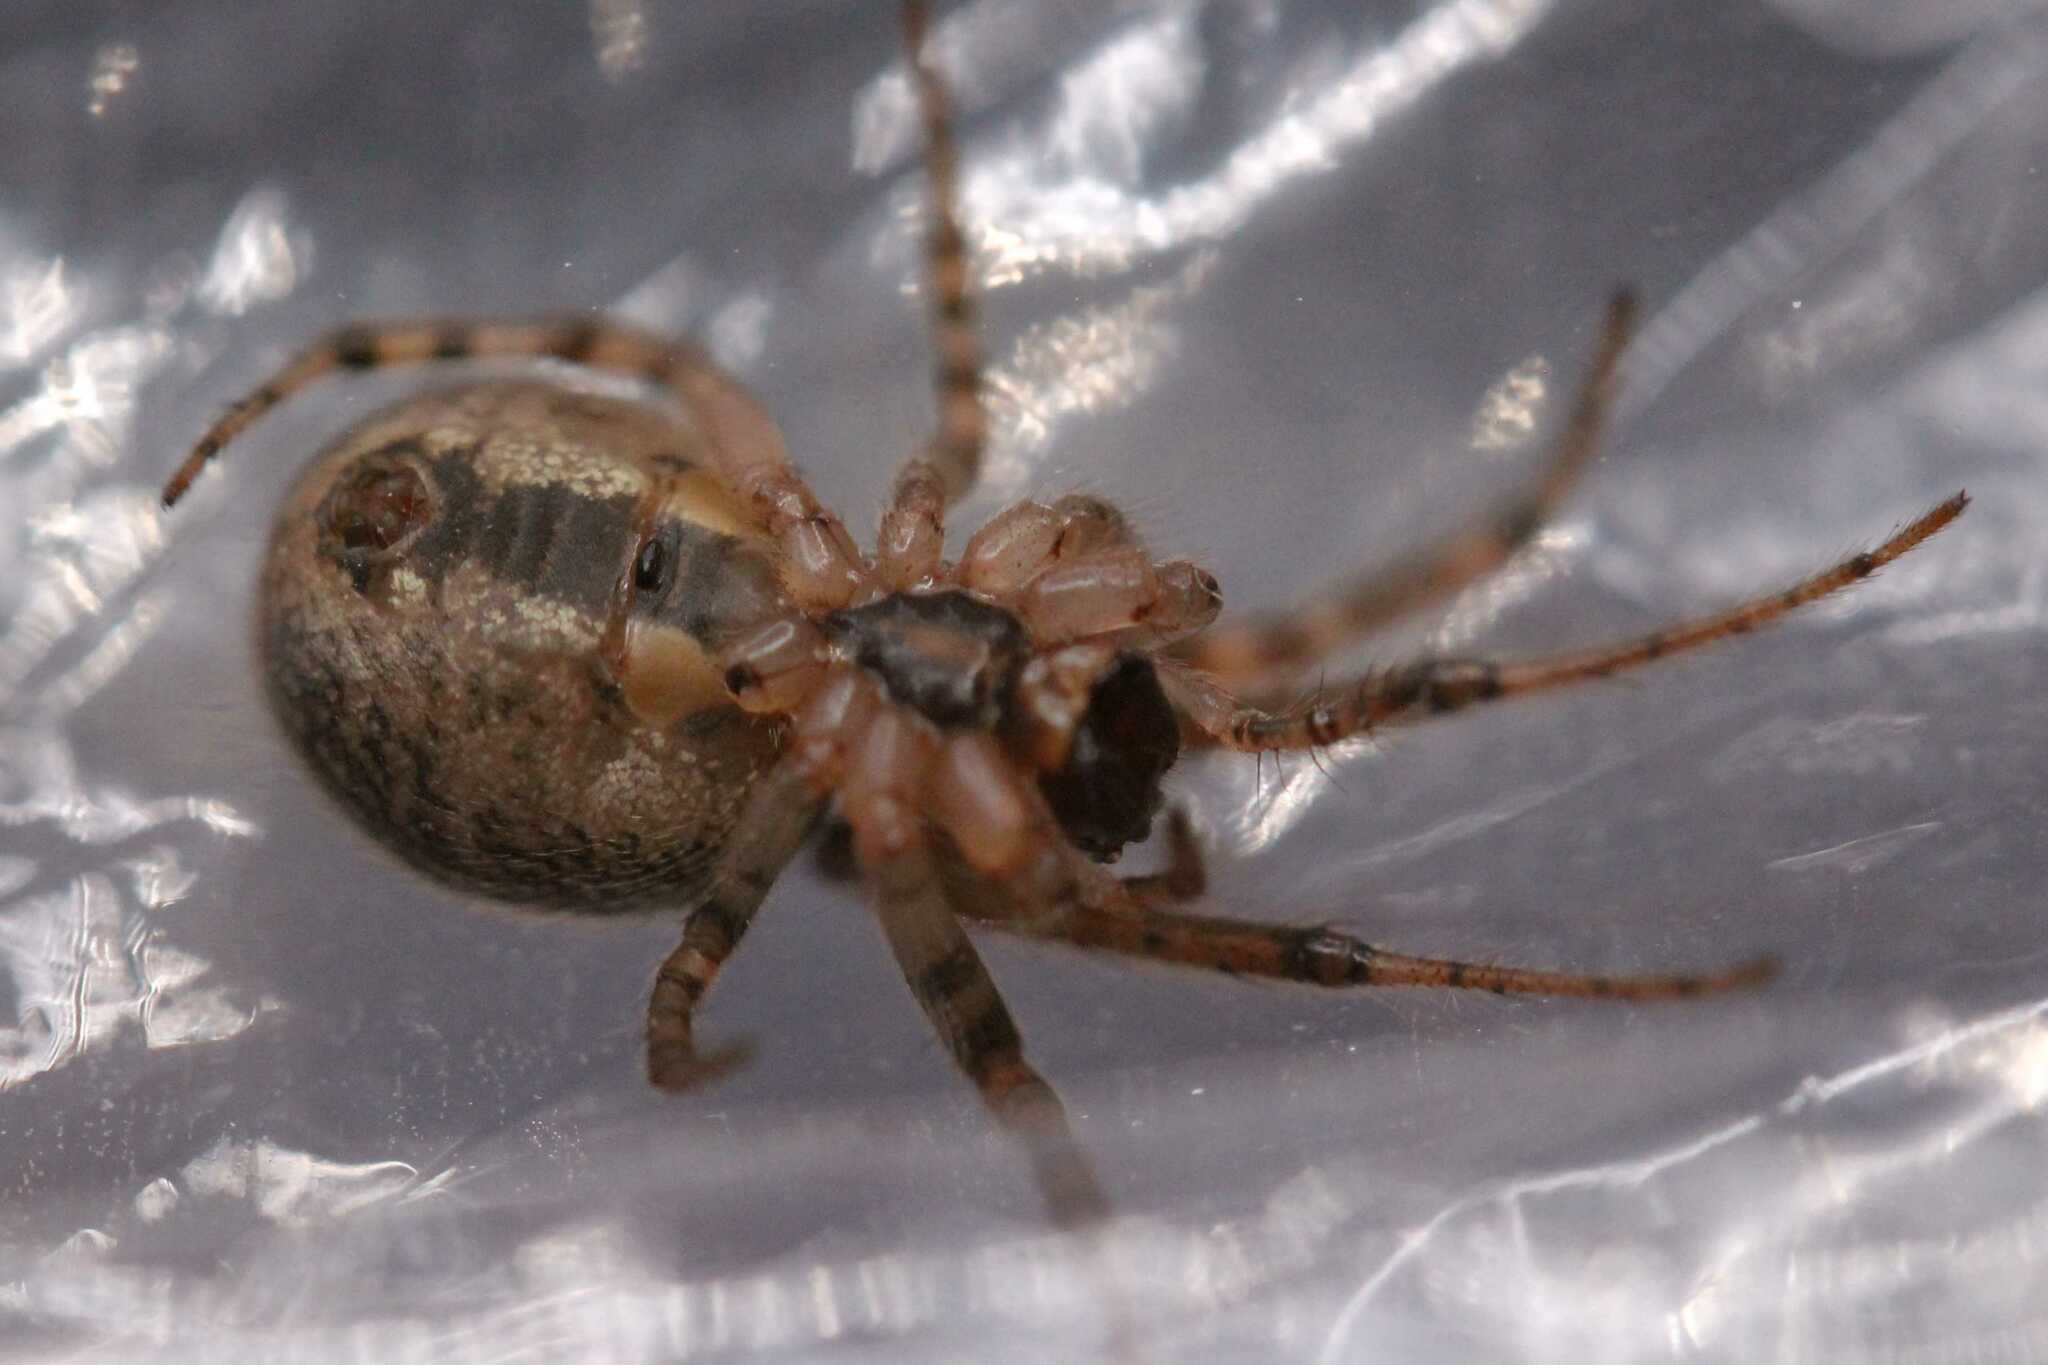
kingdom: Animalia
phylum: Arthropoda
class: Arachnida
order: Araneae
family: Araneidae
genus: Zygiella
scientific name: Zygiella x-notata
